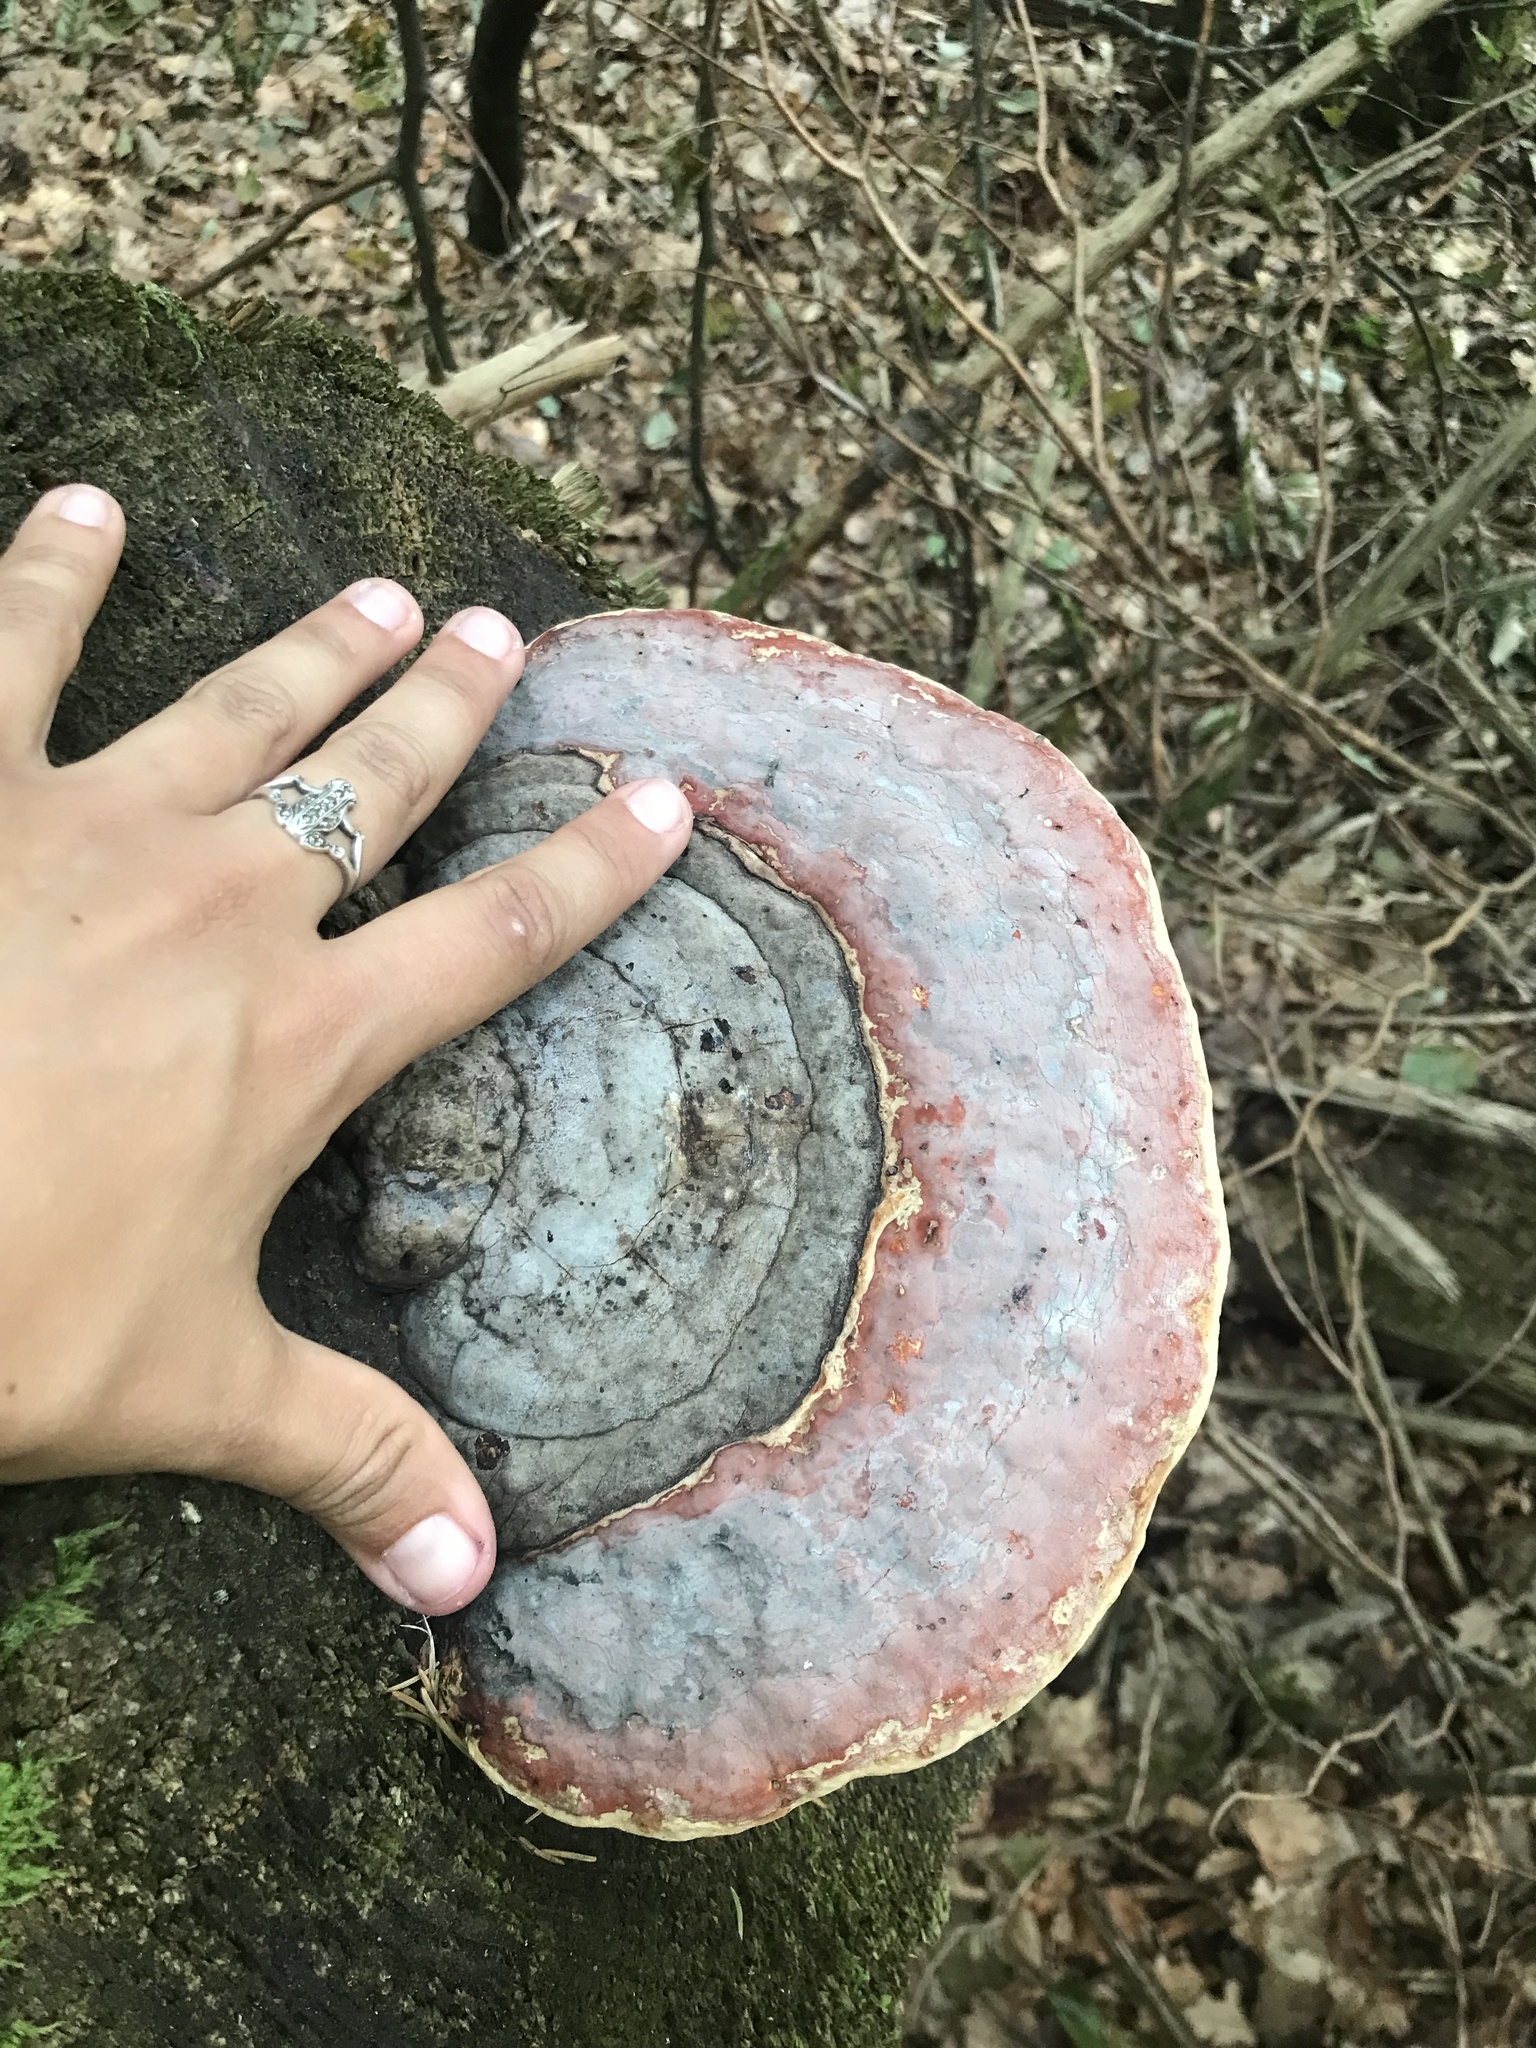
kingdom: Fungi
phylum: Basidiomycota
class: Agaricomycetes
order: Polyporales
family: Fomitopsidaceae
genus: Fomitopsis
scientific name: Fomitopsis pinicola
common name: Red-belted bracket
